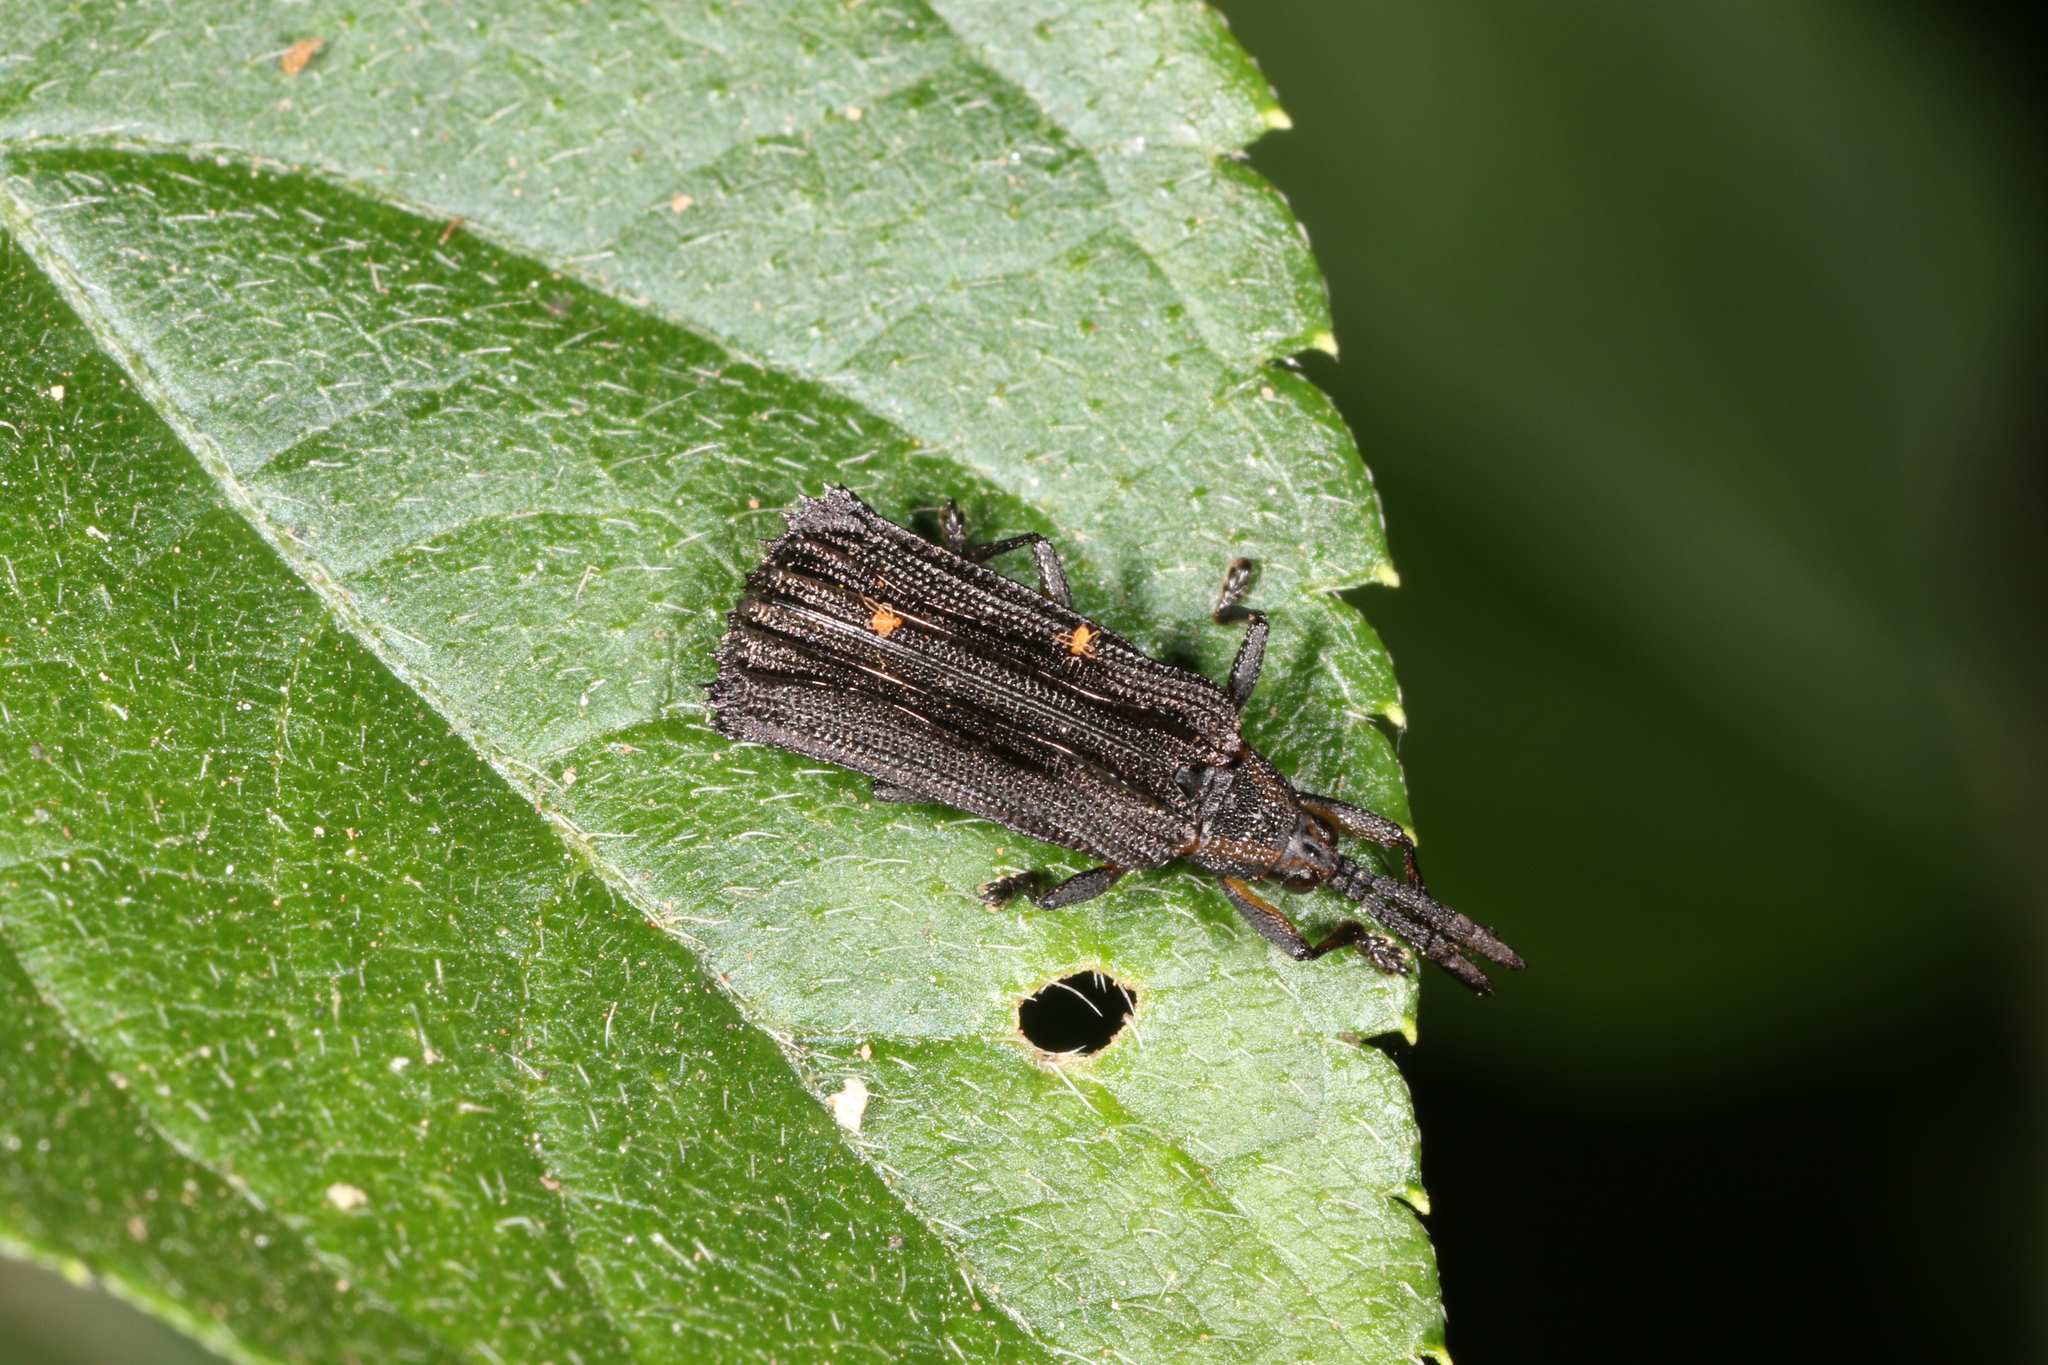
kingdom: Animalia
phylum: Arthropoda
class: Insecta
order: Coleoptera
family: Chrysomelidae
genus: Uroplata
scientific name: Uroplata interrupta
